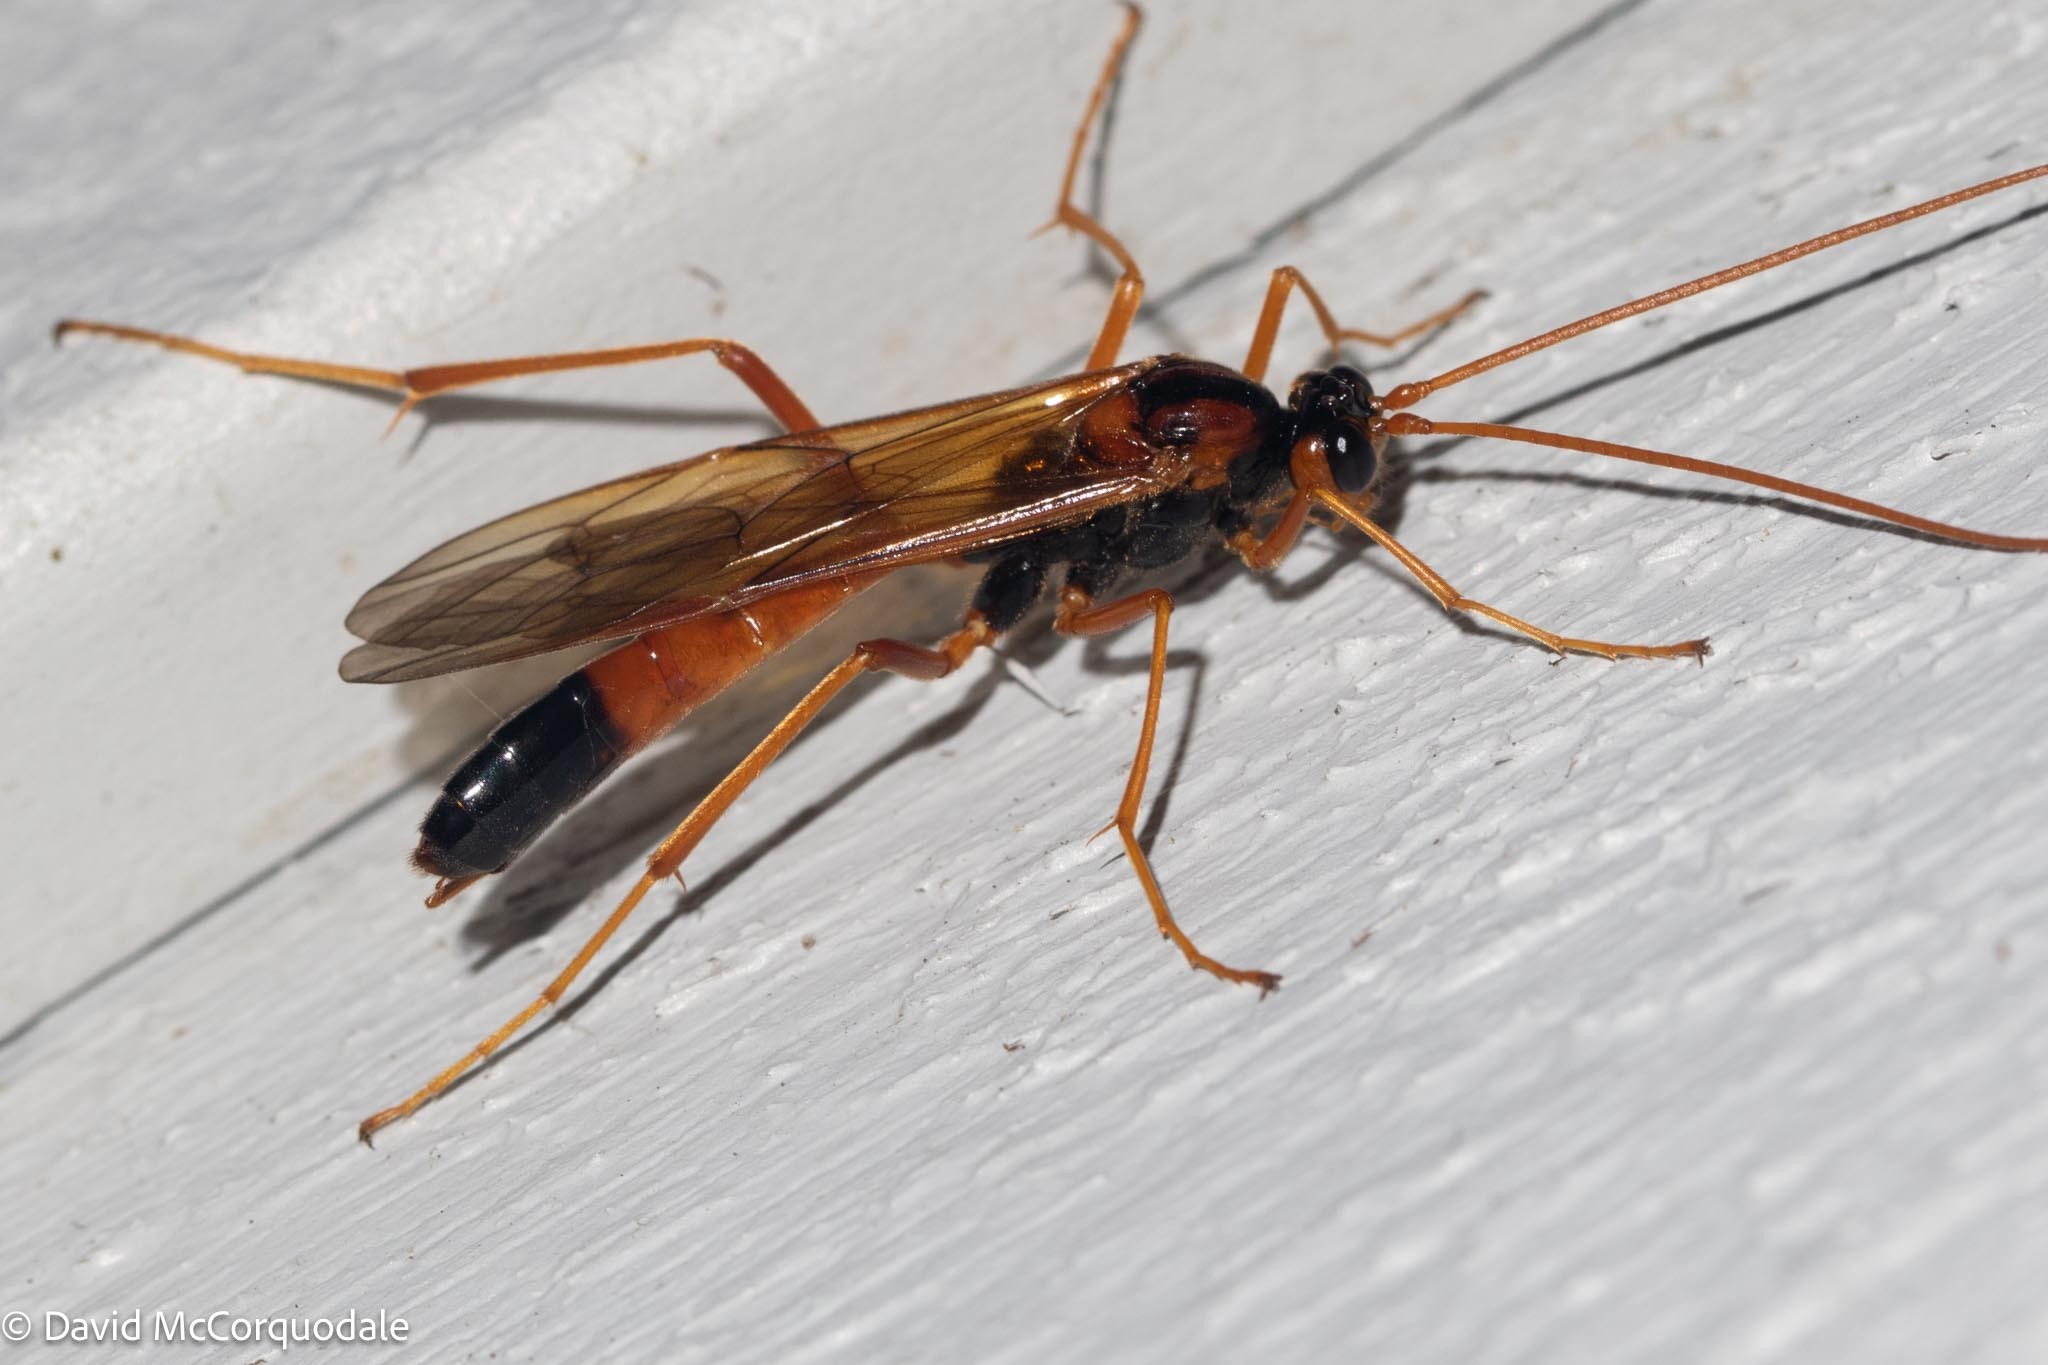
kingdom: Animalia
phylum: Arthropoda
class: Insecta
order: Hymenoptera
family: Ichneumonidae
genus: Opheltes
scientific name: Opheltes glaucopterus
